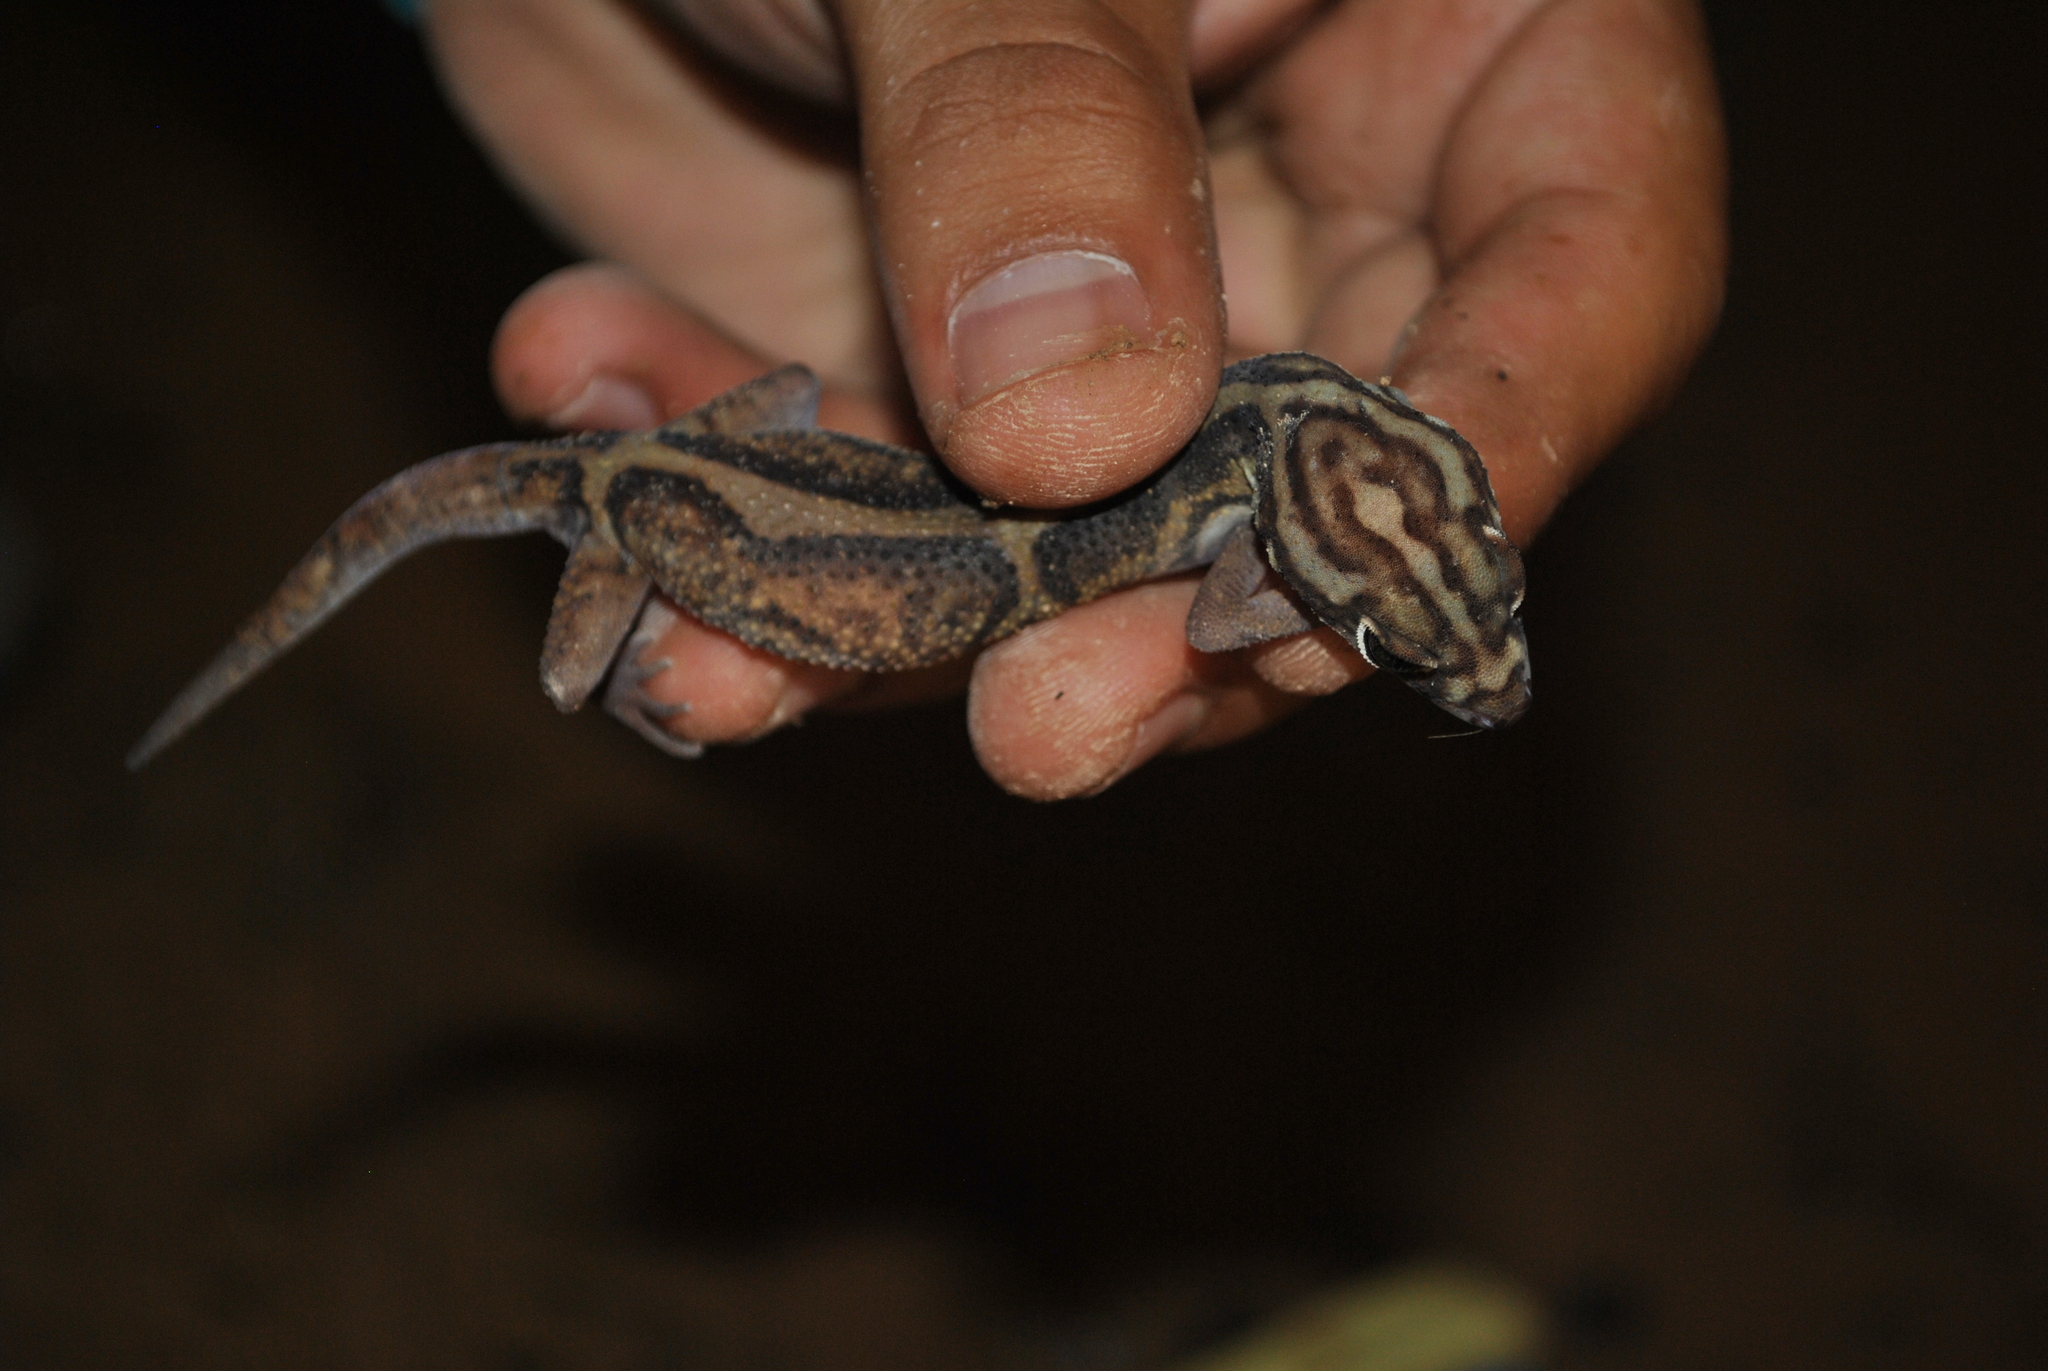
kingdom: Animalia
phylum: Chordata
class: Squamata
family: Eublepharidae
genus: Coleonyx
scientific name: Coleonyx elegans
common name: Yucatan banded gecko
